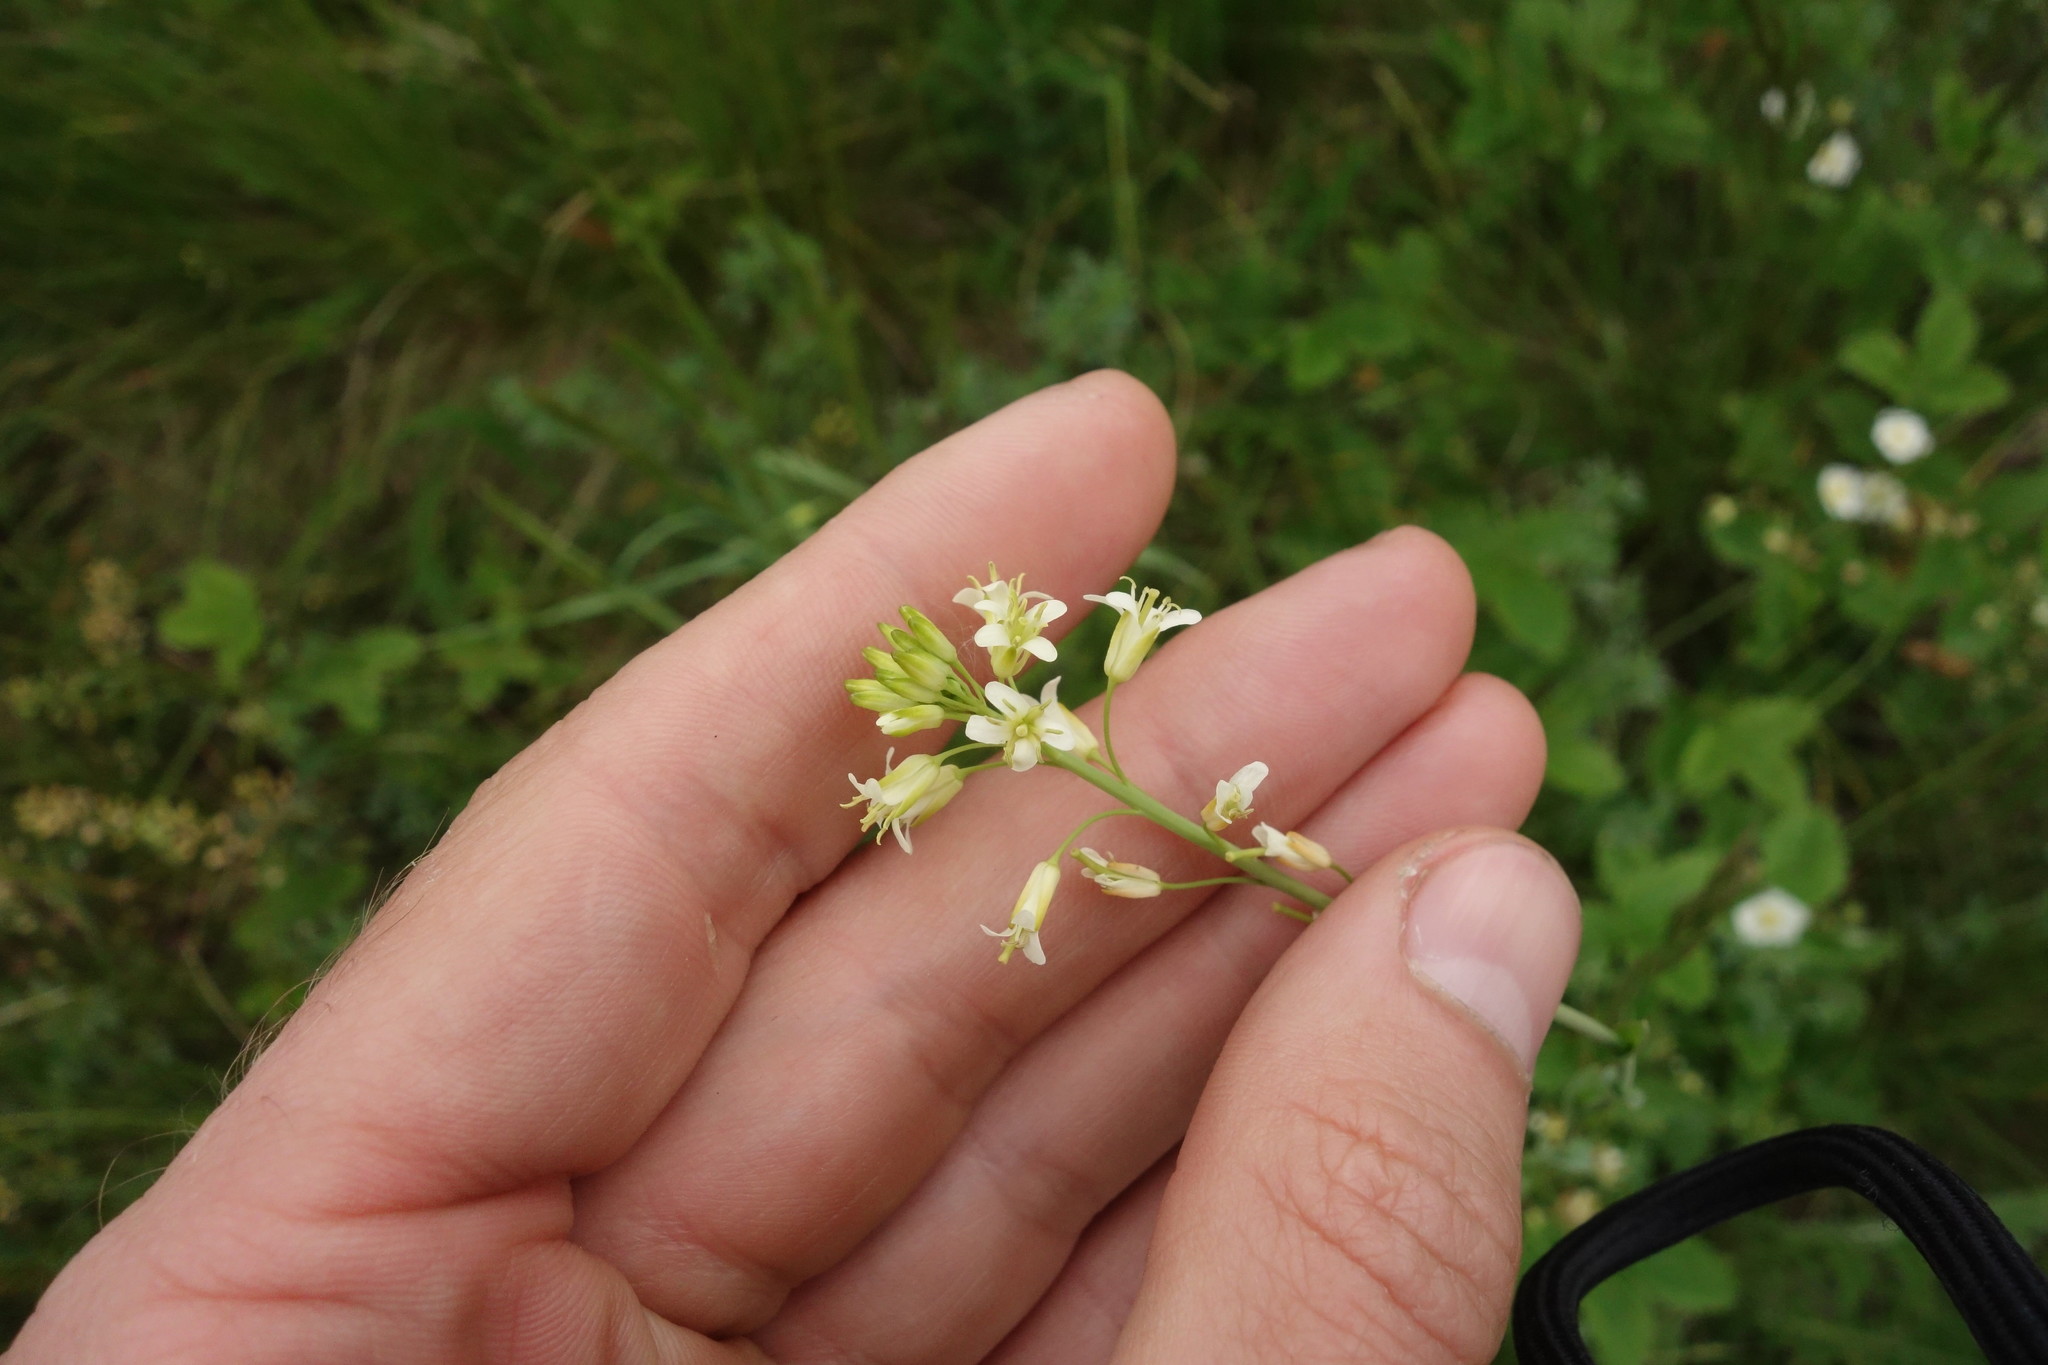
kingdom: Plantae
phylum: Tracheophyta
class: Magnoliopsida
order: Brassicales
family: Brassicaceae
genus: Turritis
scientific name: Turritis glabra
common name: Tower rockcress
